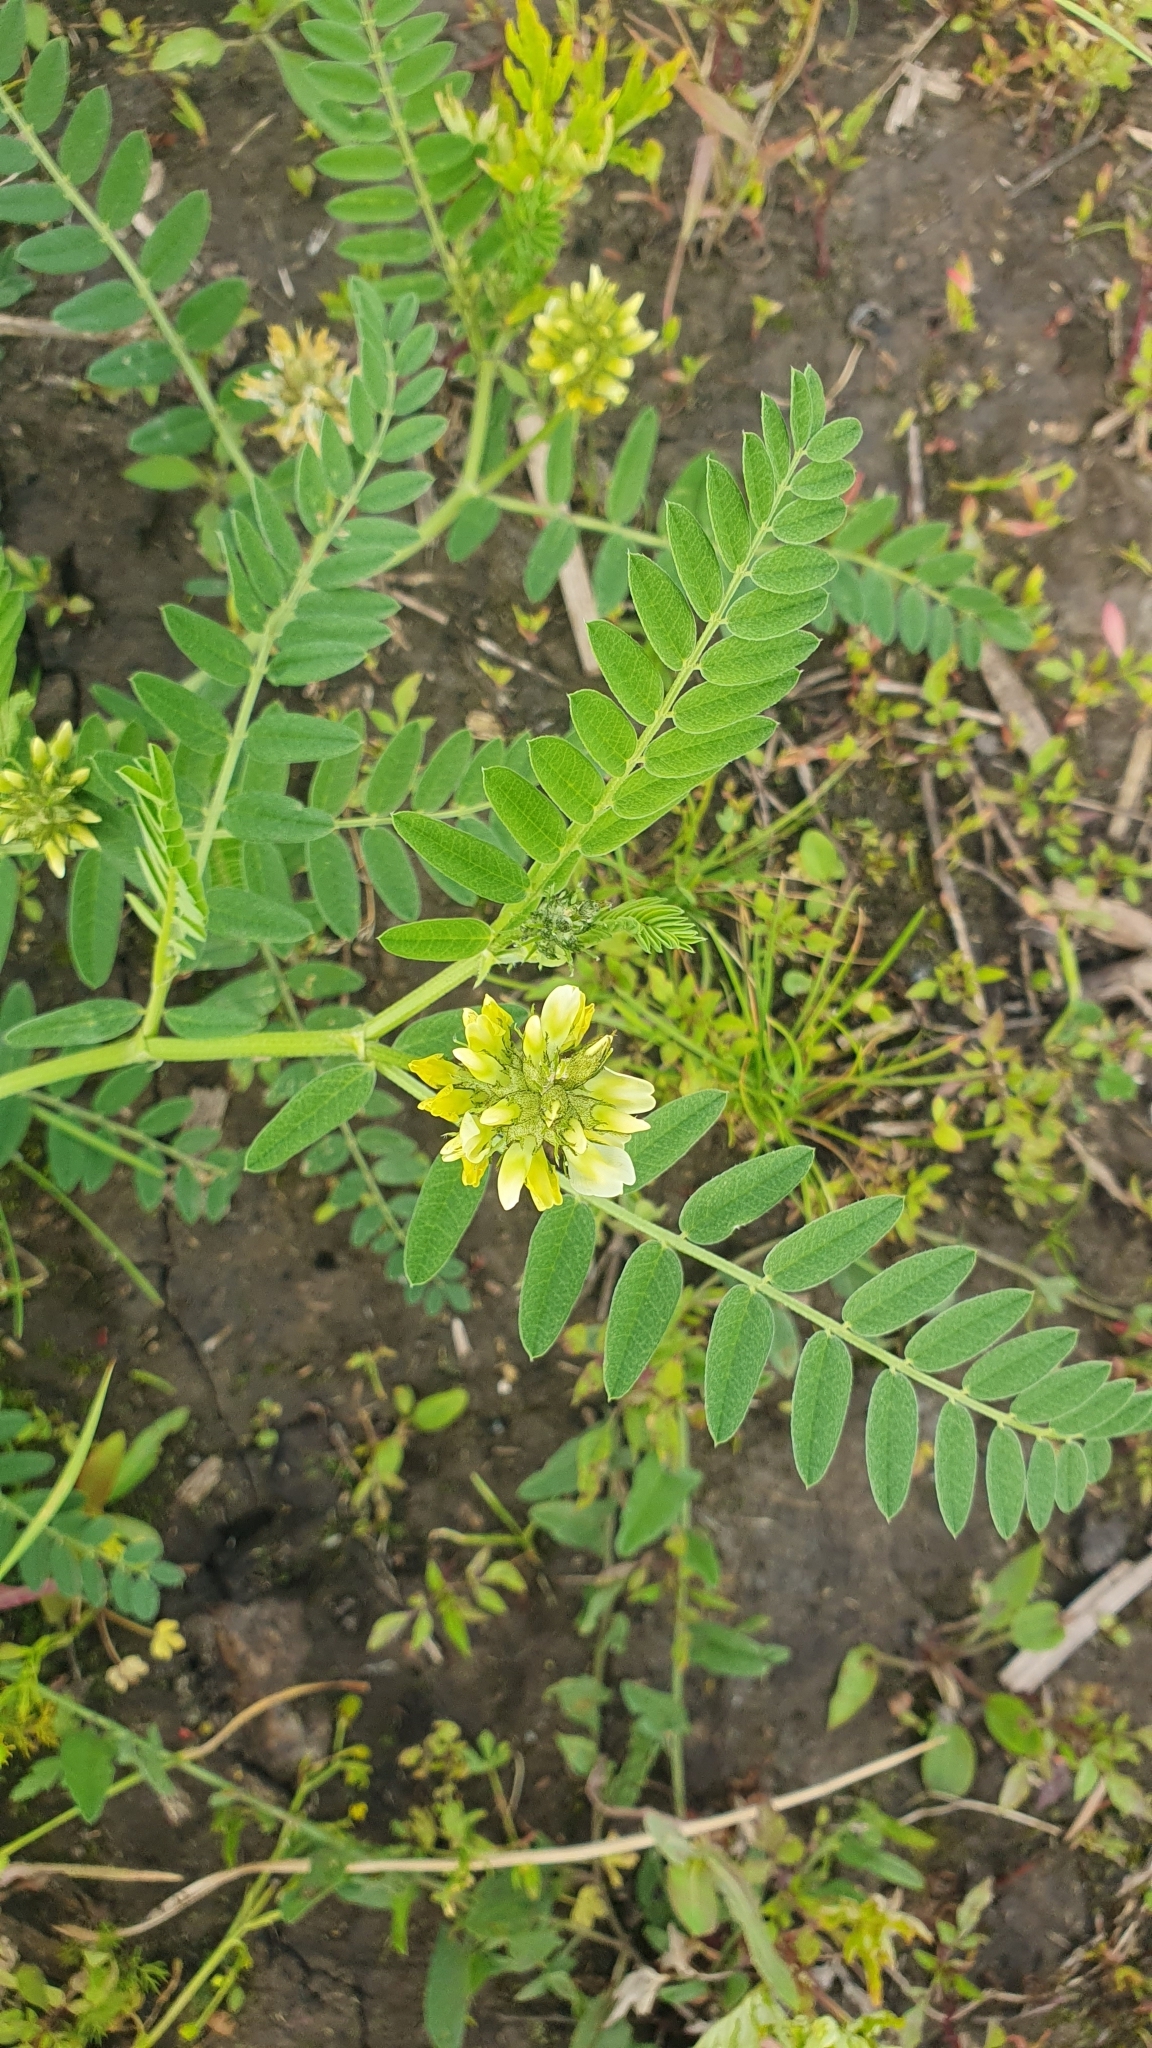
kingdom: Plantae
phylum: Tracheophyta
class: Magnoliopsida
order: Fabales
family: Fabaceae
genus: Astragalus
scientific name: Astragalus cicer
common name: Chick-pea milk-vetch
